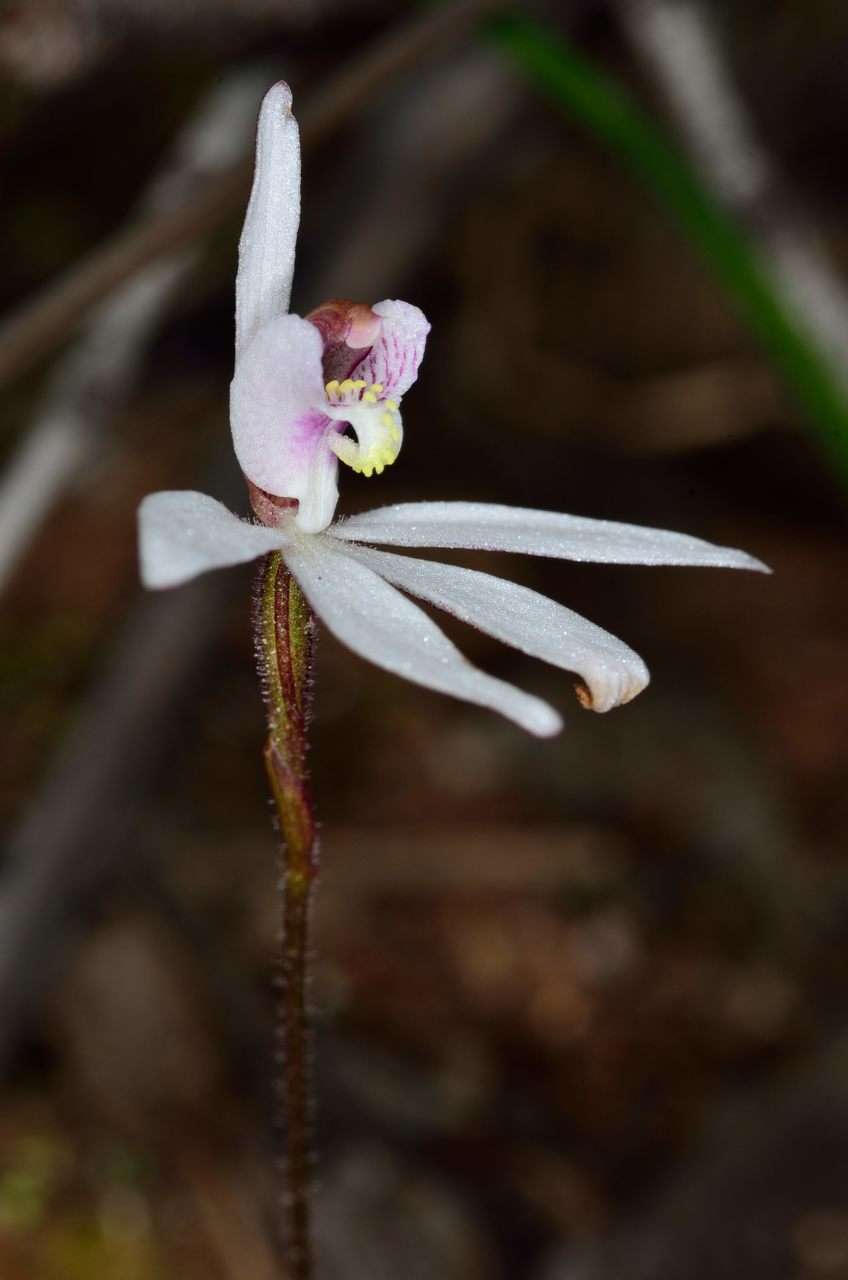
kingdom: Plantae
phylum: Tracheophyta
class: Liliopsida
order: Asparagales
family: Orchidaceae
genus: Caladenia
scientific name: Caladenia caerulea
